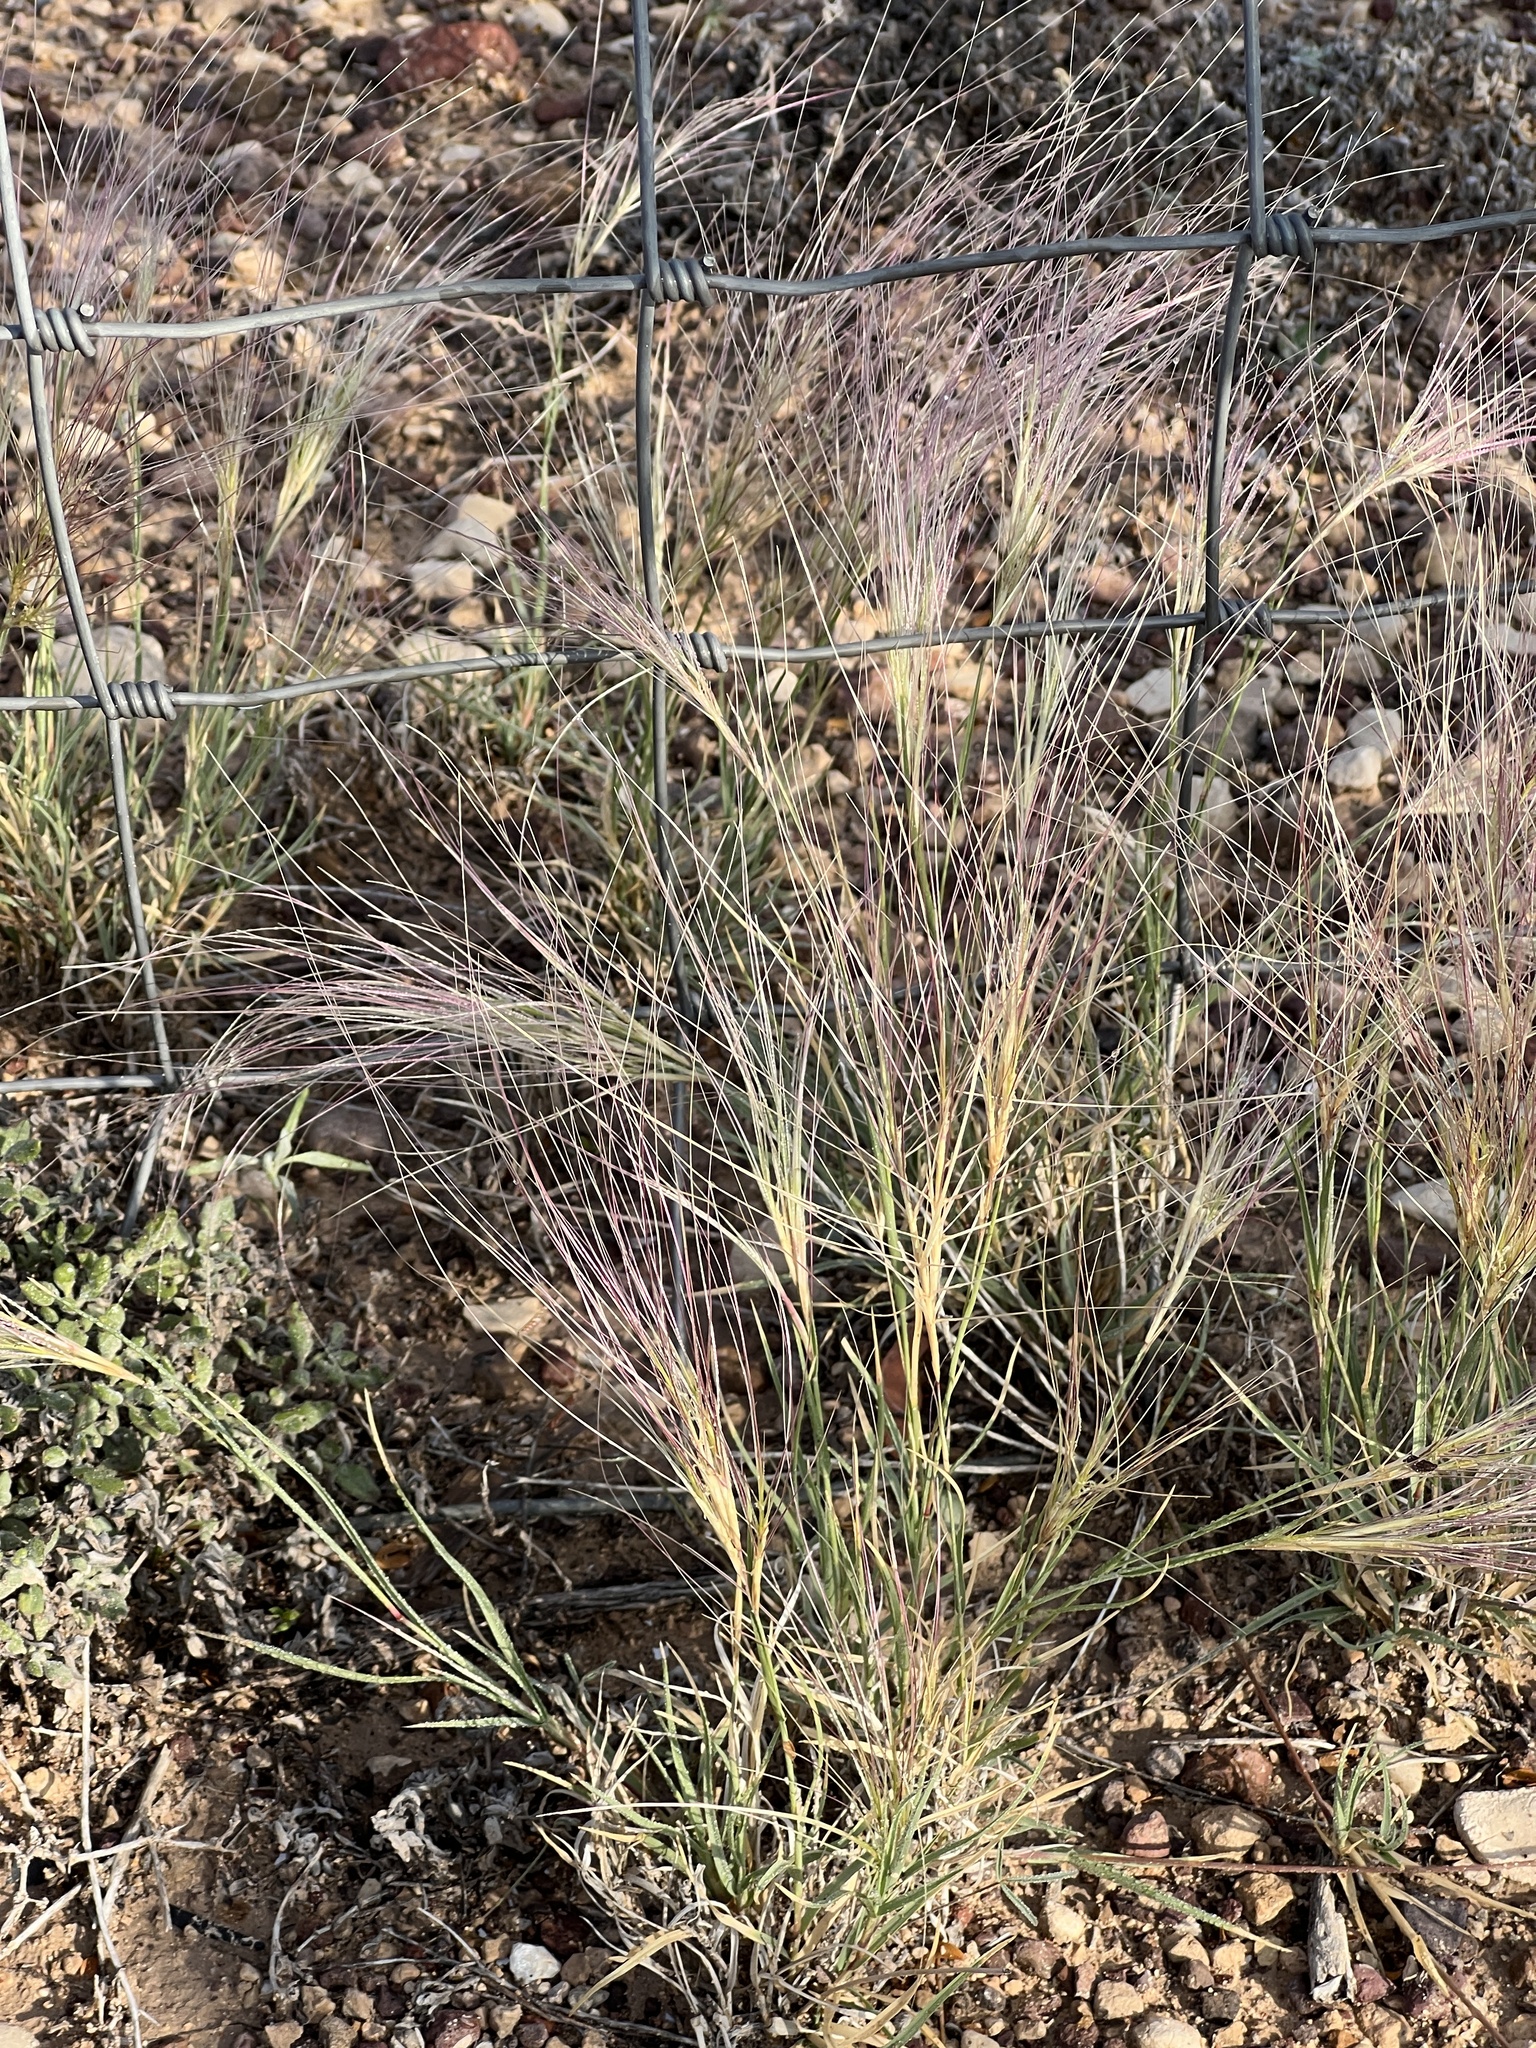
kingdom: Plantae
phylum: Tracheophyta
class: Liliopsida
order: Poales
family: Poaceae
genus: Scleropogon
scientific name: Scleropogon brevifolius
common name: Burro grass
